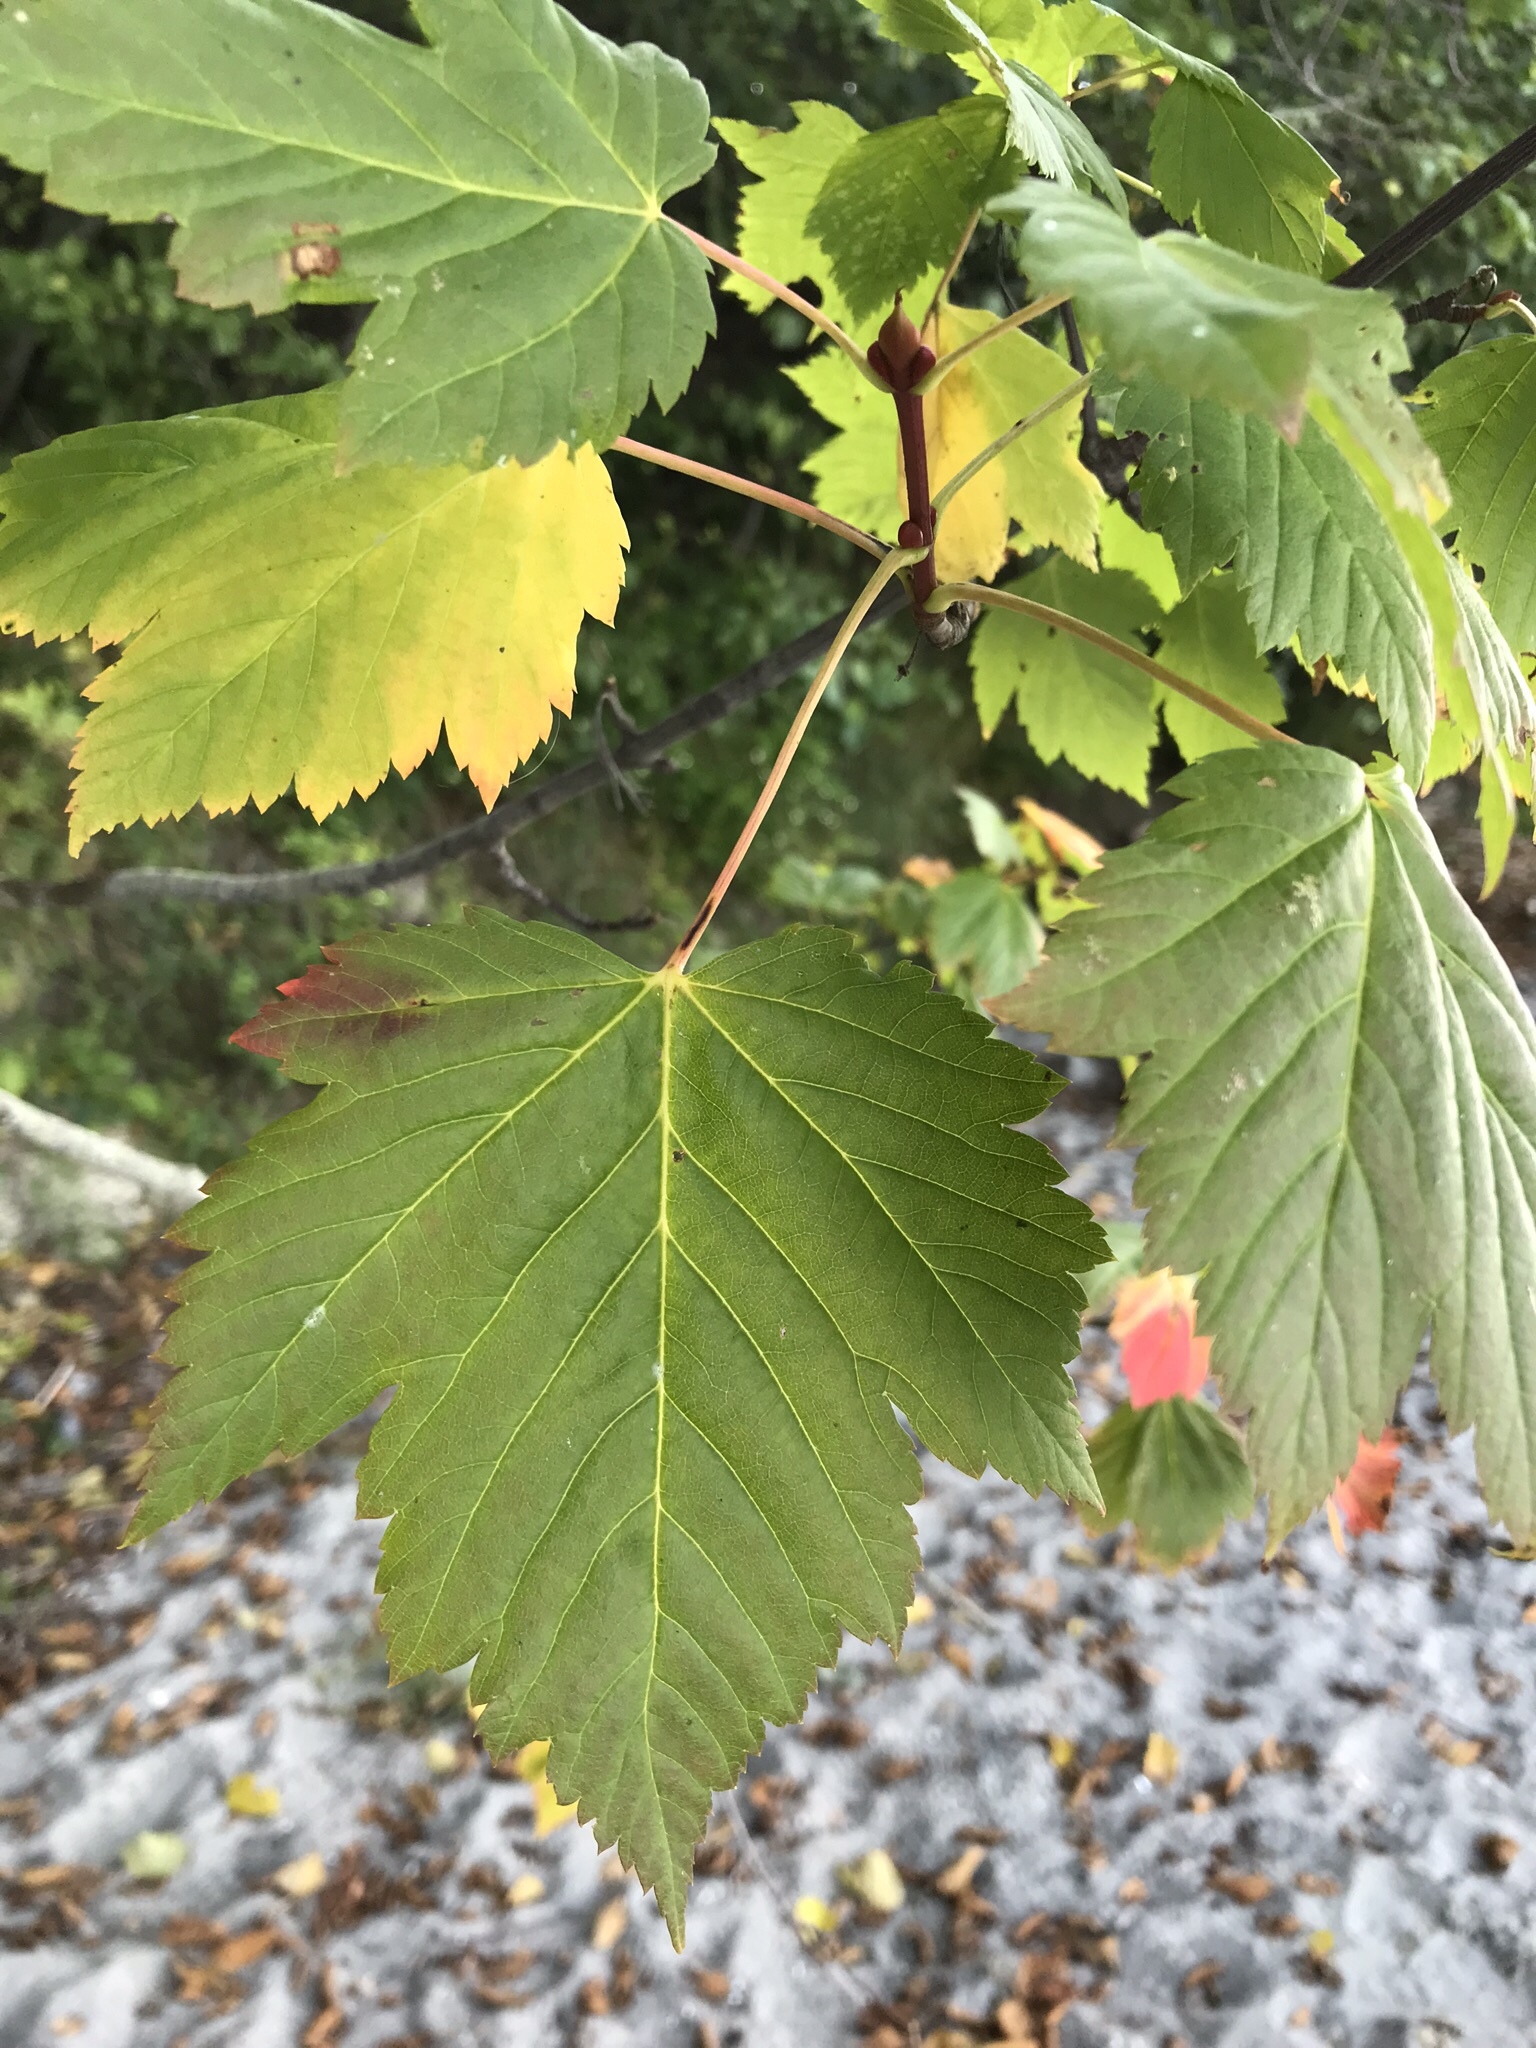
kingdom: Plantae
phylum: Tracheophyta
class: Magnoliopsida
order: Sapindales
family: Sapindaceae
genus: Acer
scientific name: Acer glabrum
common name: Rocky mountain maple
